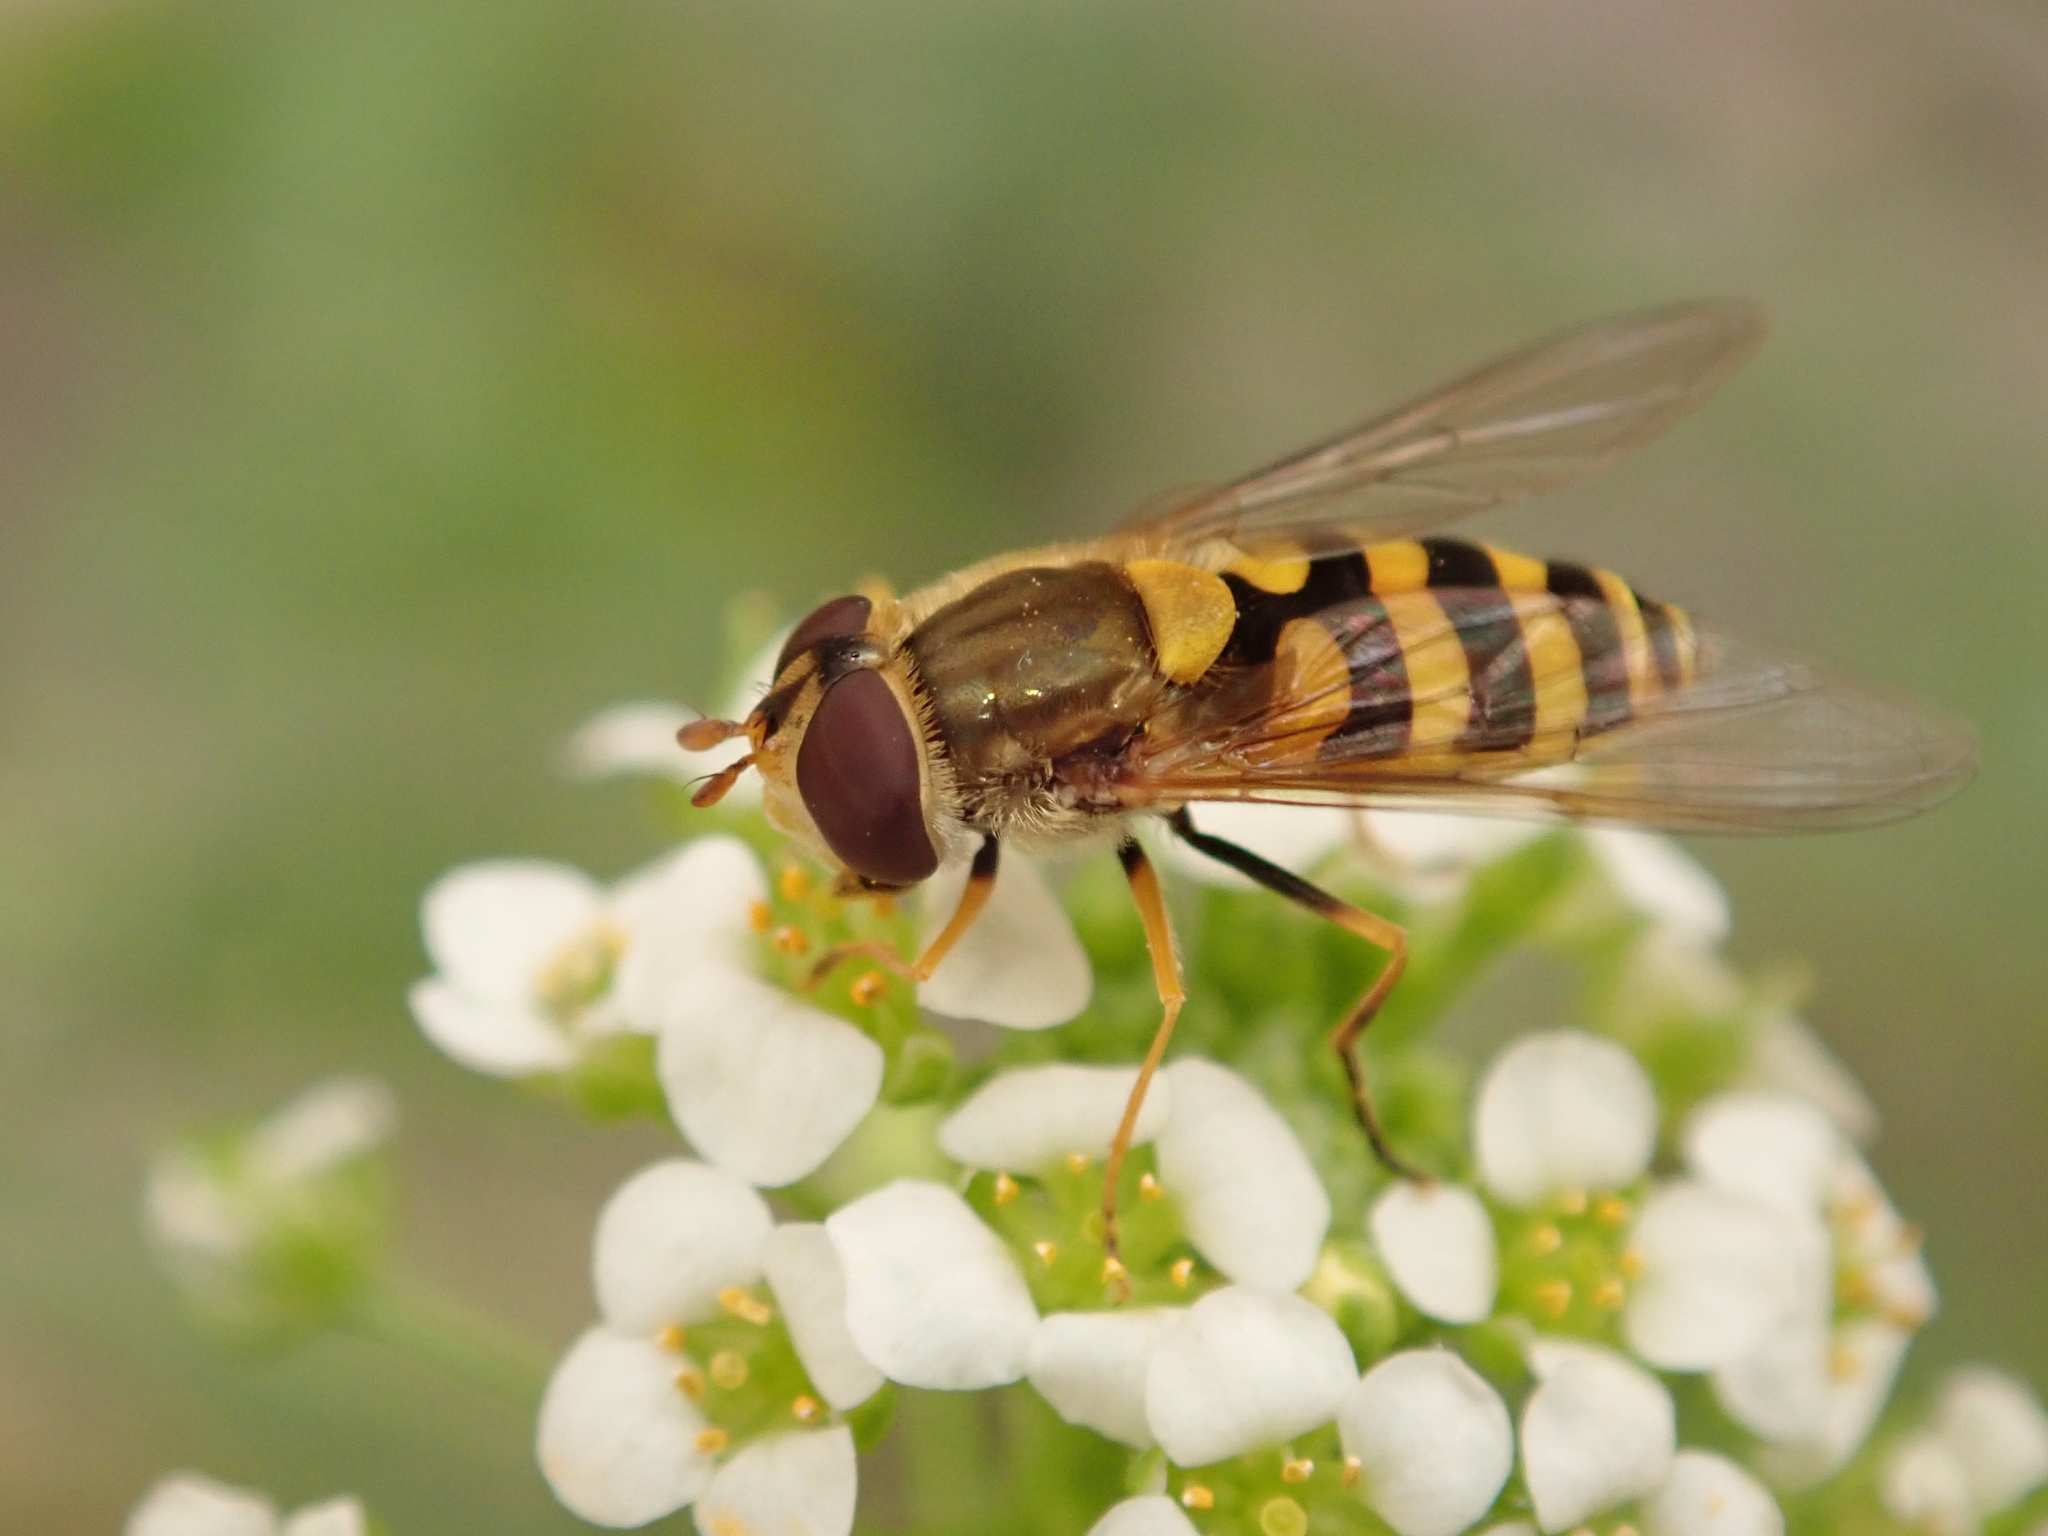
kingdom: Animalia
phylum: Arthropoda
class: Insecta
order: Diptera
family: Syrphidae
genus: Syrphus
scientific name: Syrphus vitripennis
